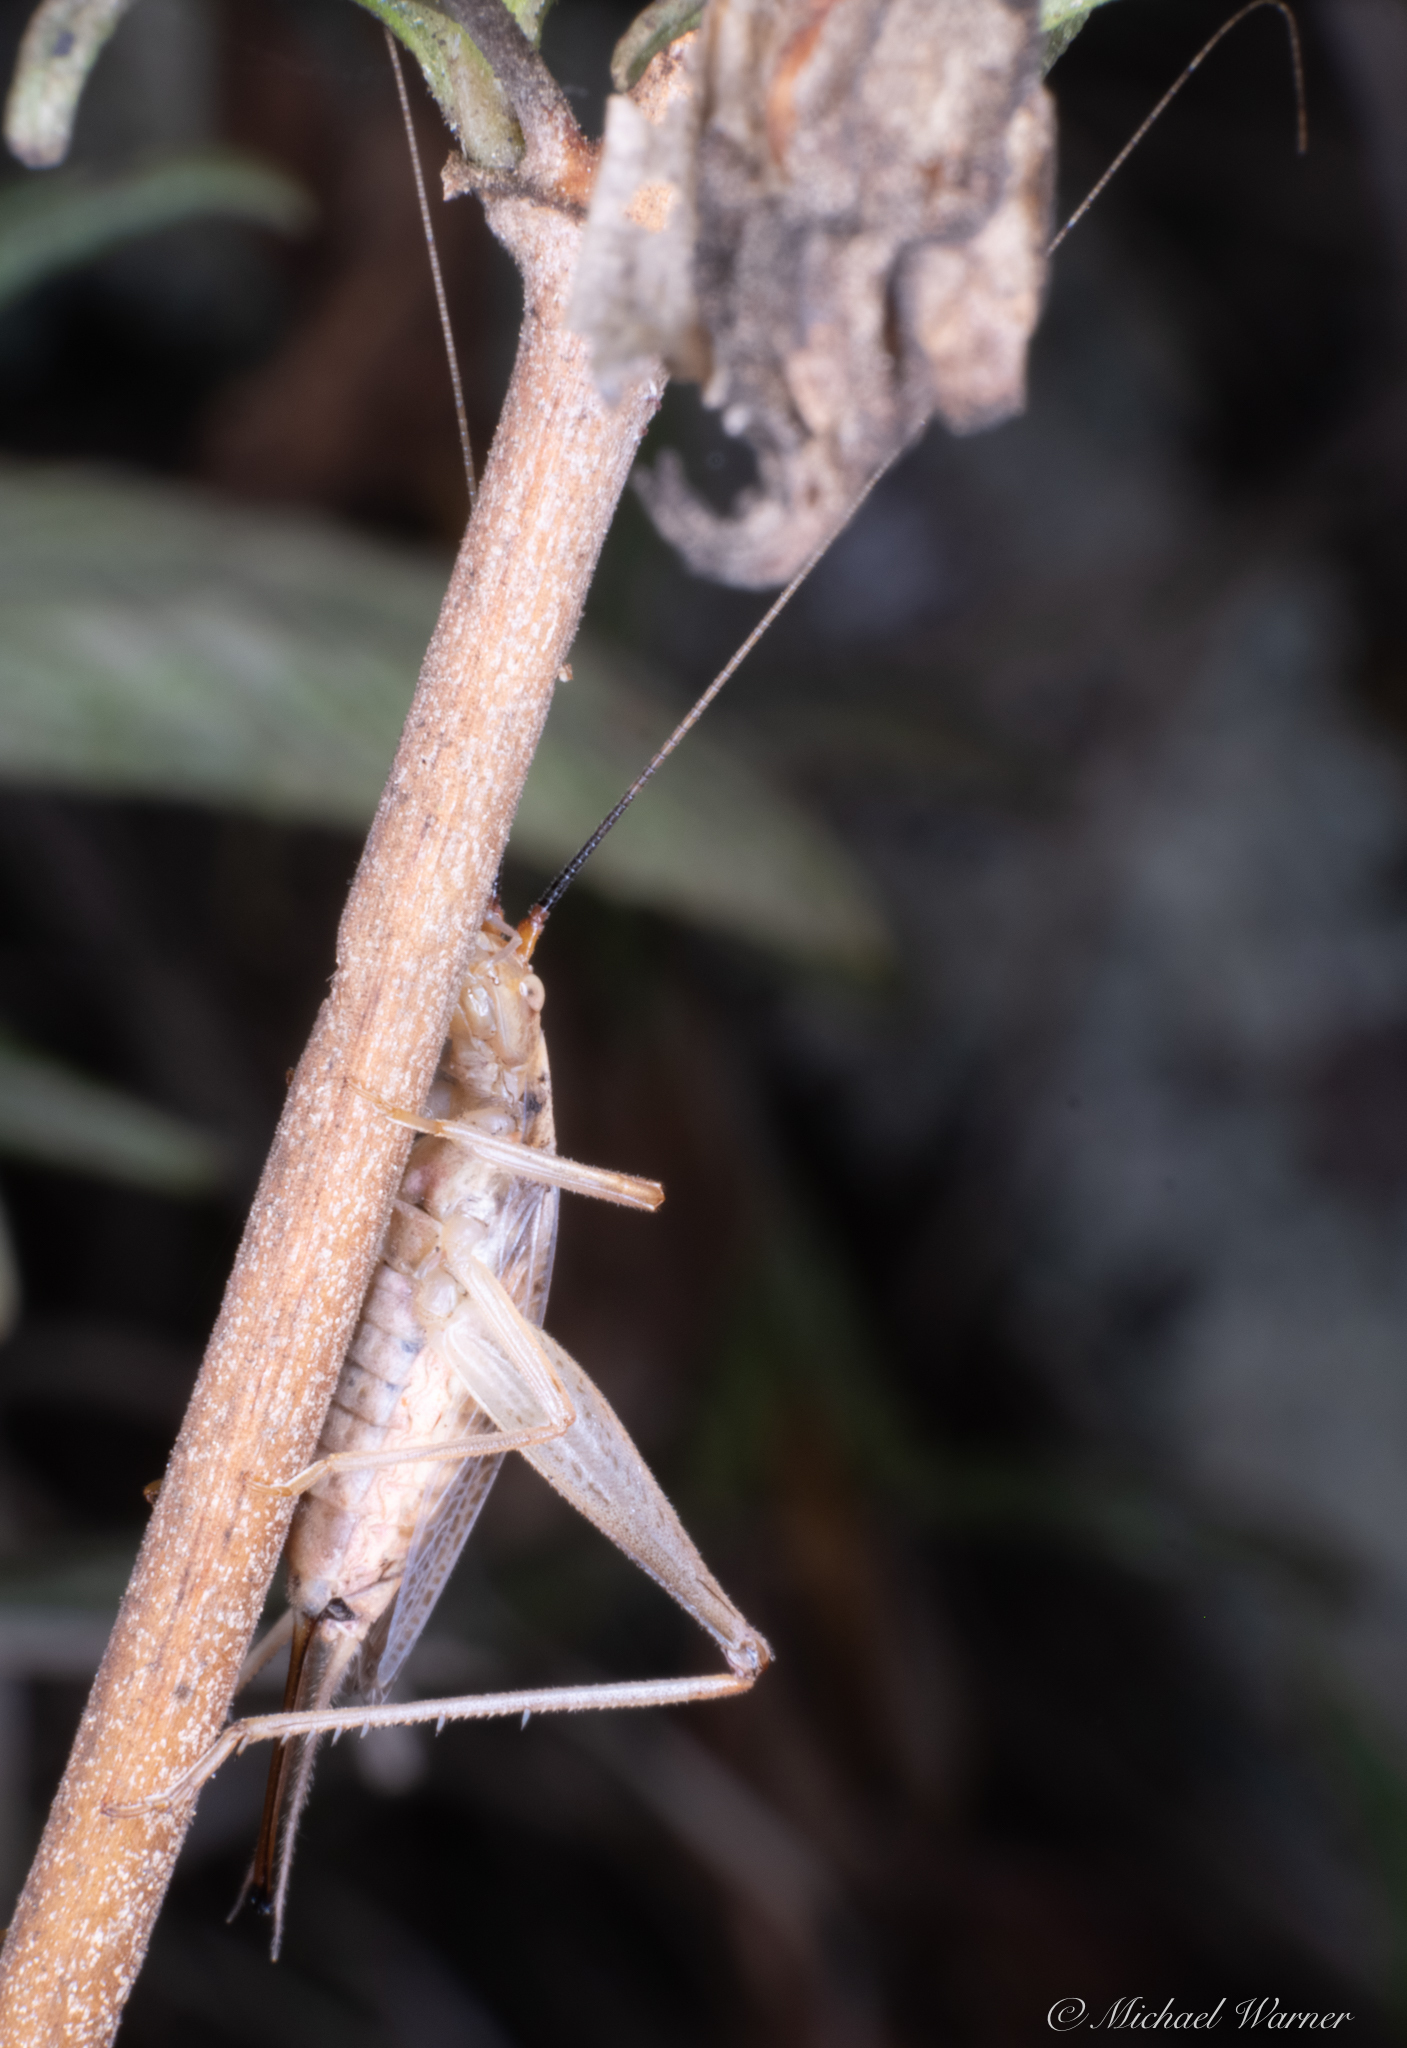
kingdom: Animalia
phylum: Arthropoda
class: Insecta
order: Orthoptera
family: Gryllidae
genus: Oecanthus
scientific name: Oecanthus californicus
